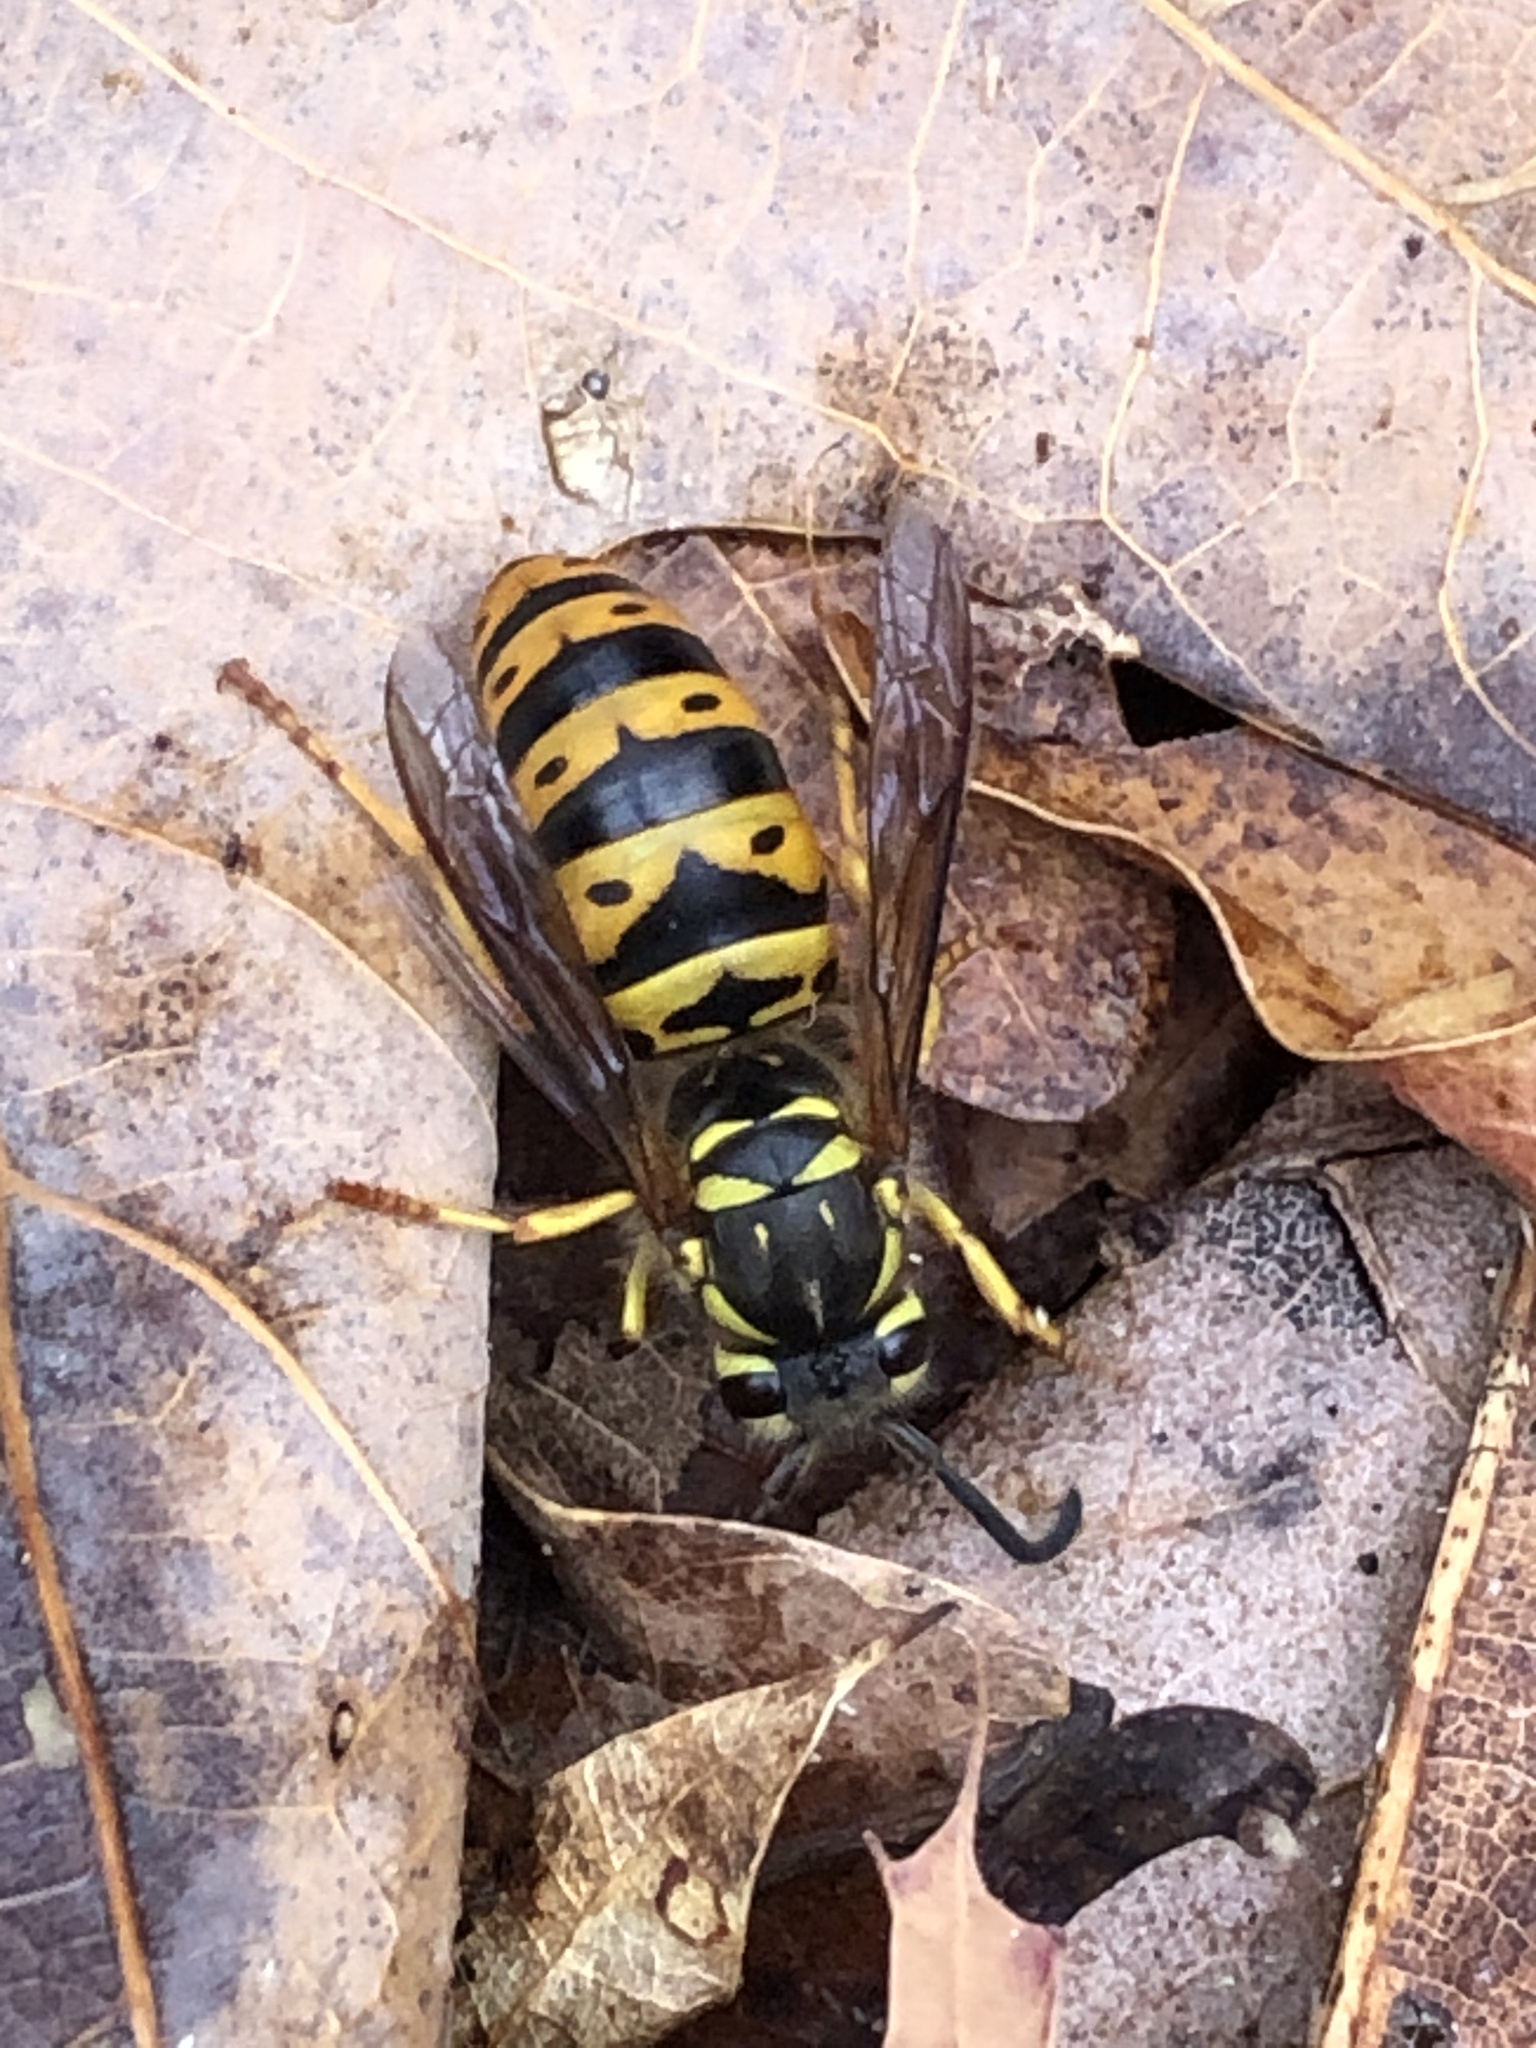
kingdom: Animalia
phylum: Arthropoda
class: Insecta
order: Hymenoptera
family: Vespidae
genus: Vespula
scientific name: Vespula maculifrons
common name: Eastern yellowjacket
